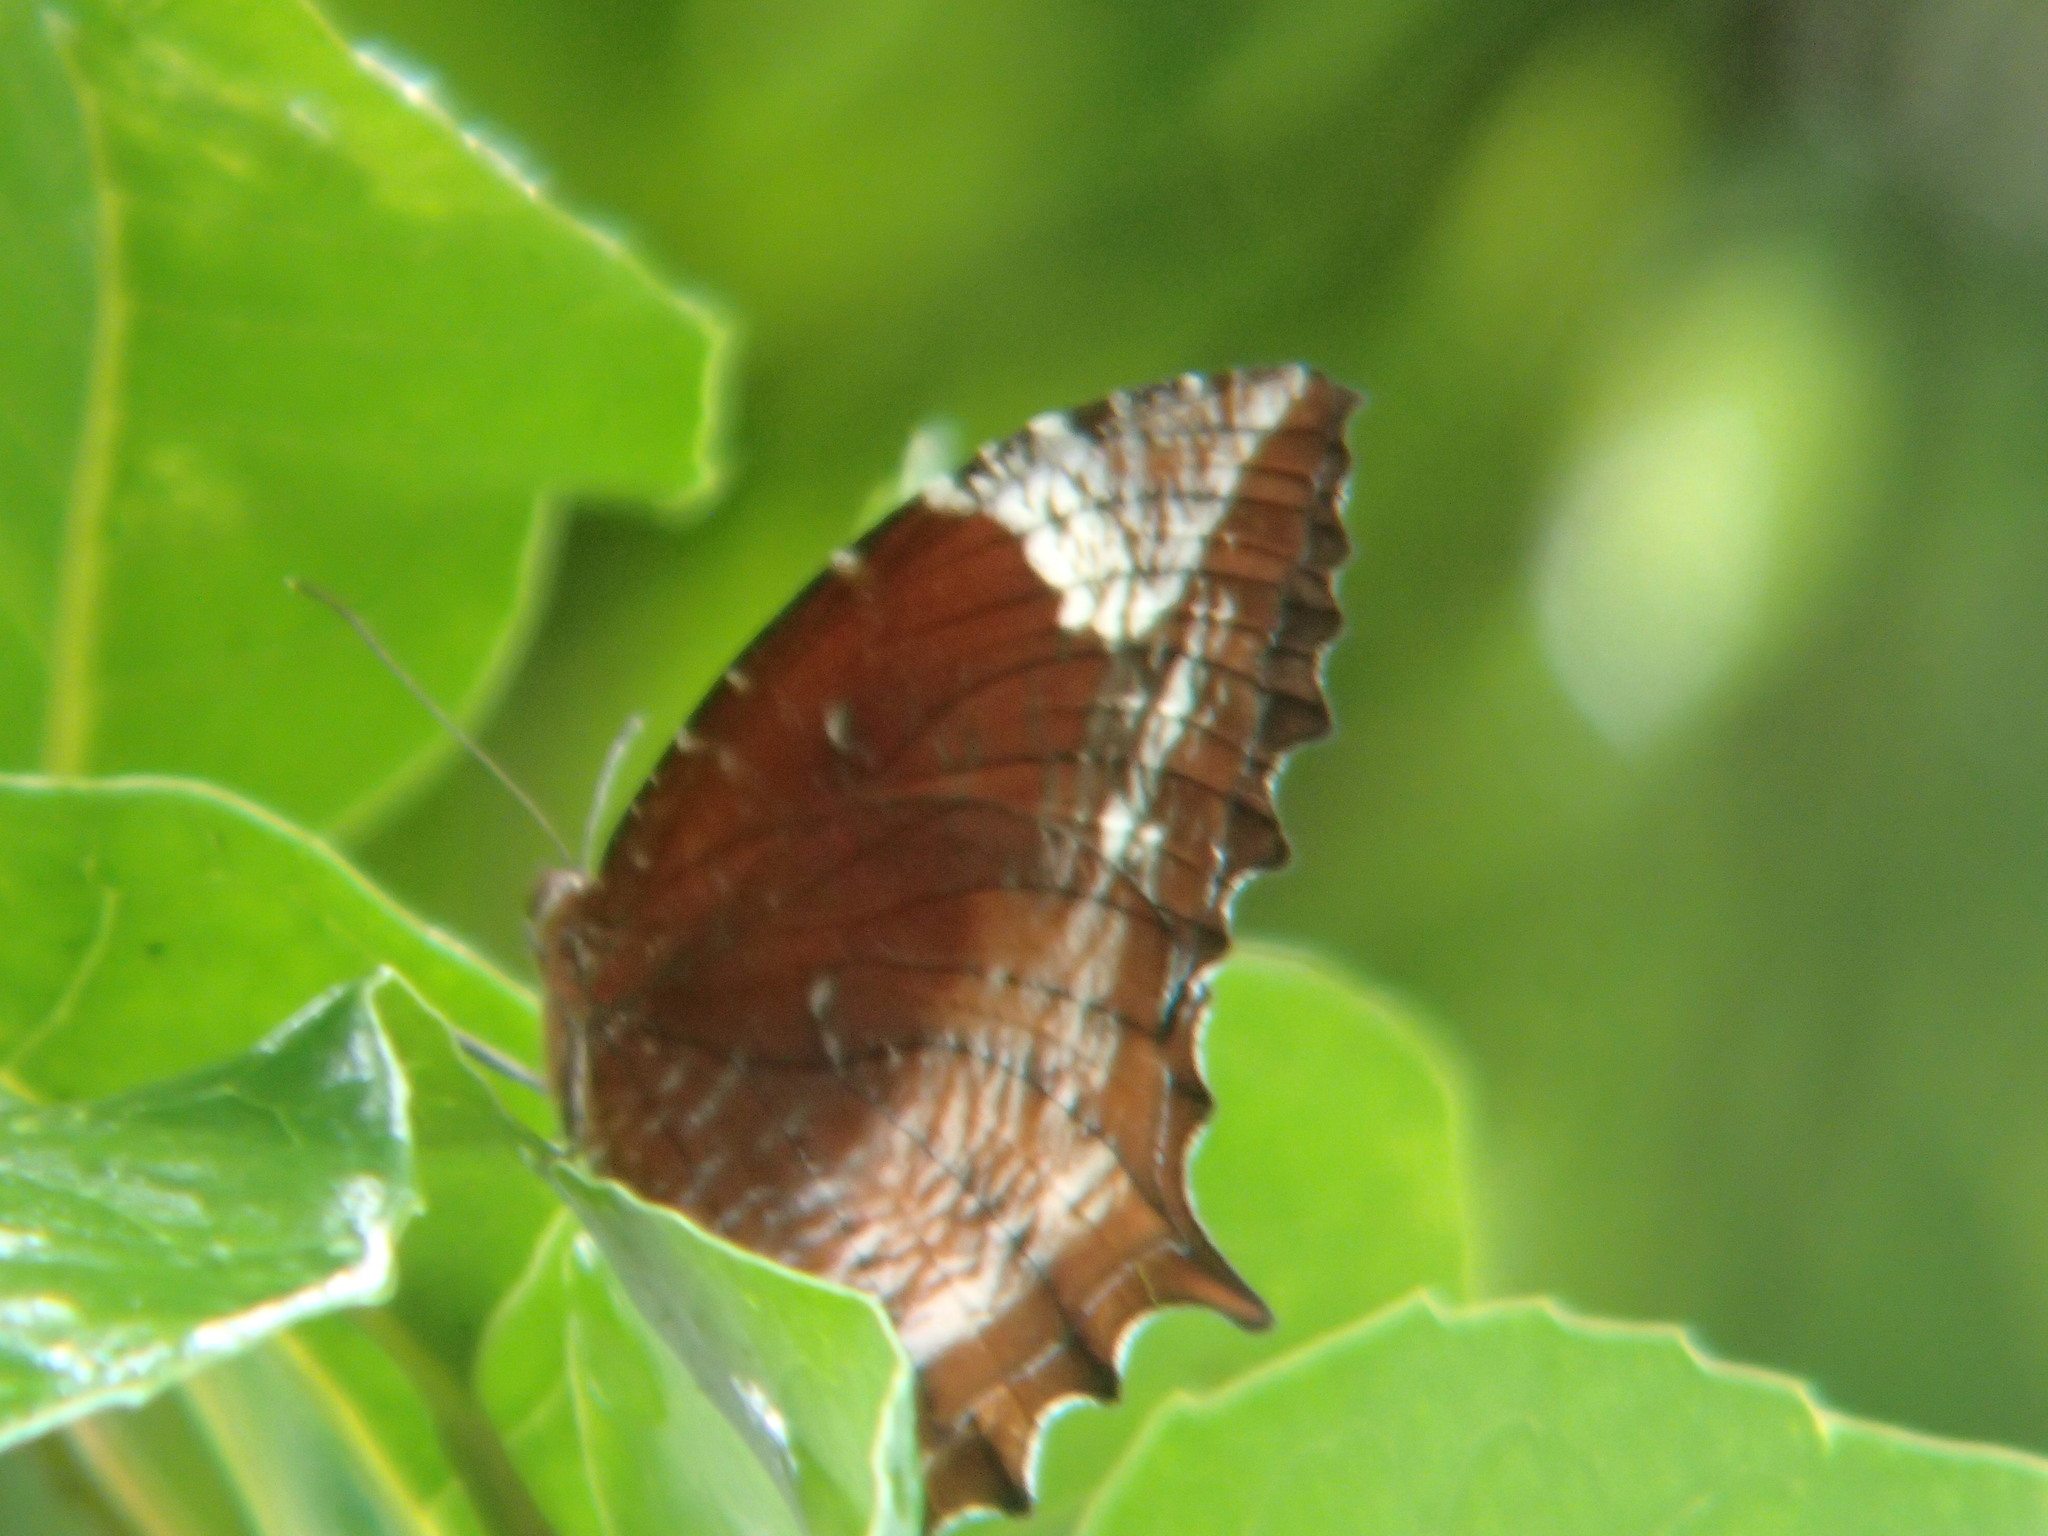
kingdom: Animalia
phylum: Arthropoda
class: Insecta
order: Lepidoptera
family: Nymphalidae
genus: Elymnias
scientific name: Elymnias caudata
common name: Tailed palmfly
